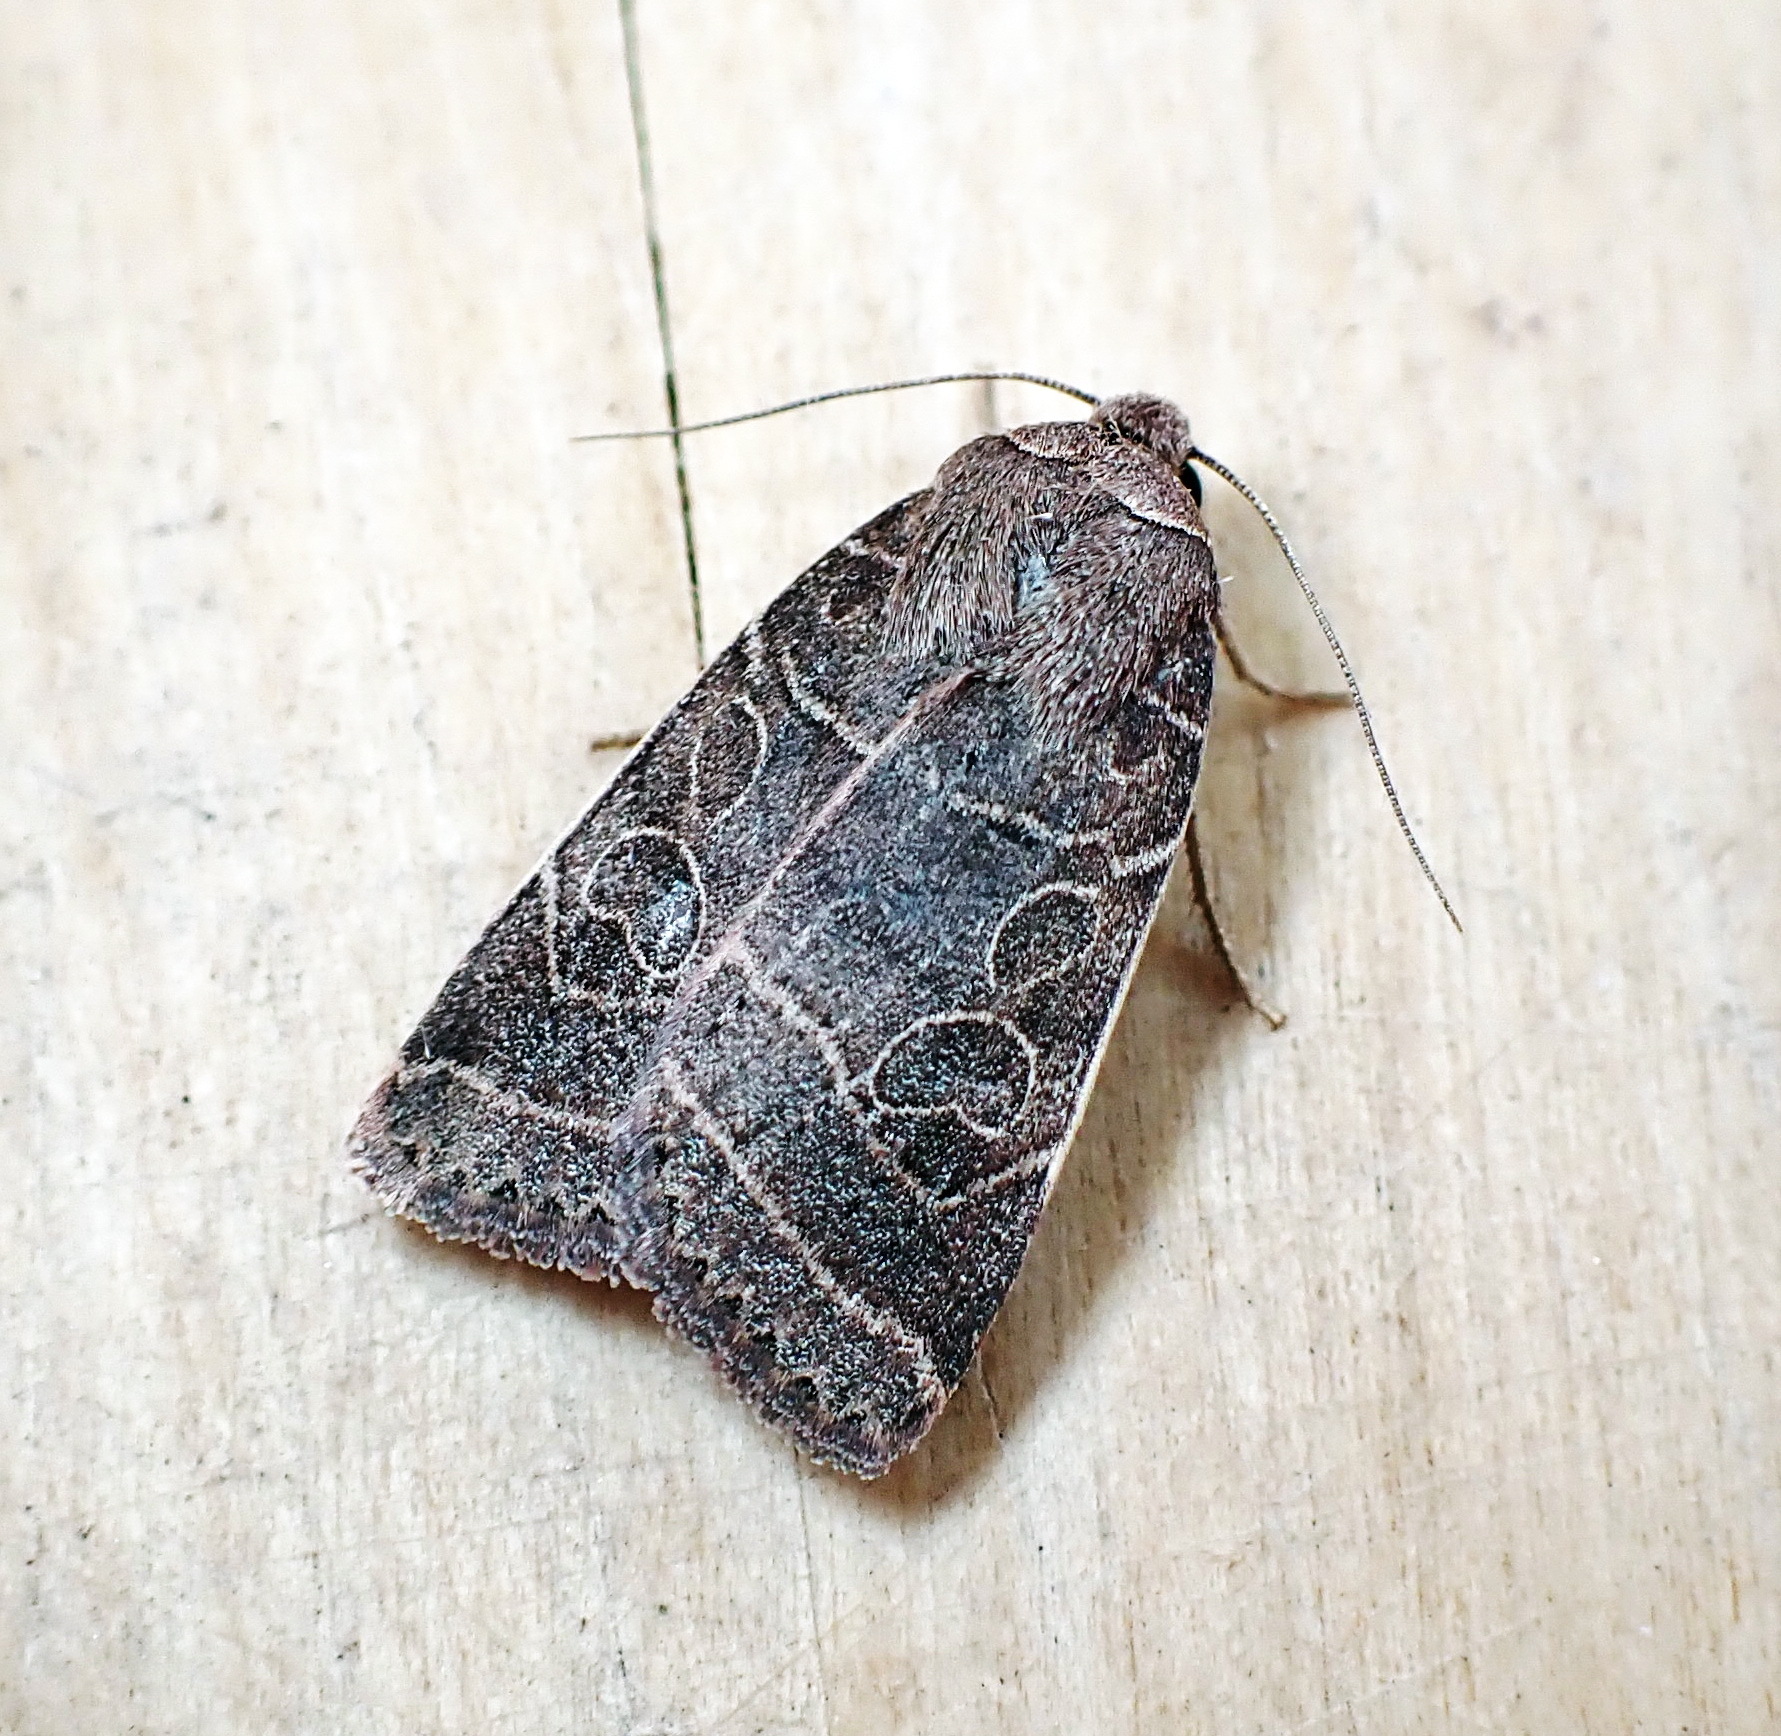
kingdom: Animalia
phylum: Arthropoda
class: Insecta
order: Lepidoptera
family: Noctuidae
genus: Orthodes
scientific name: Orthodes majuscula
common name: Rustic quaker
